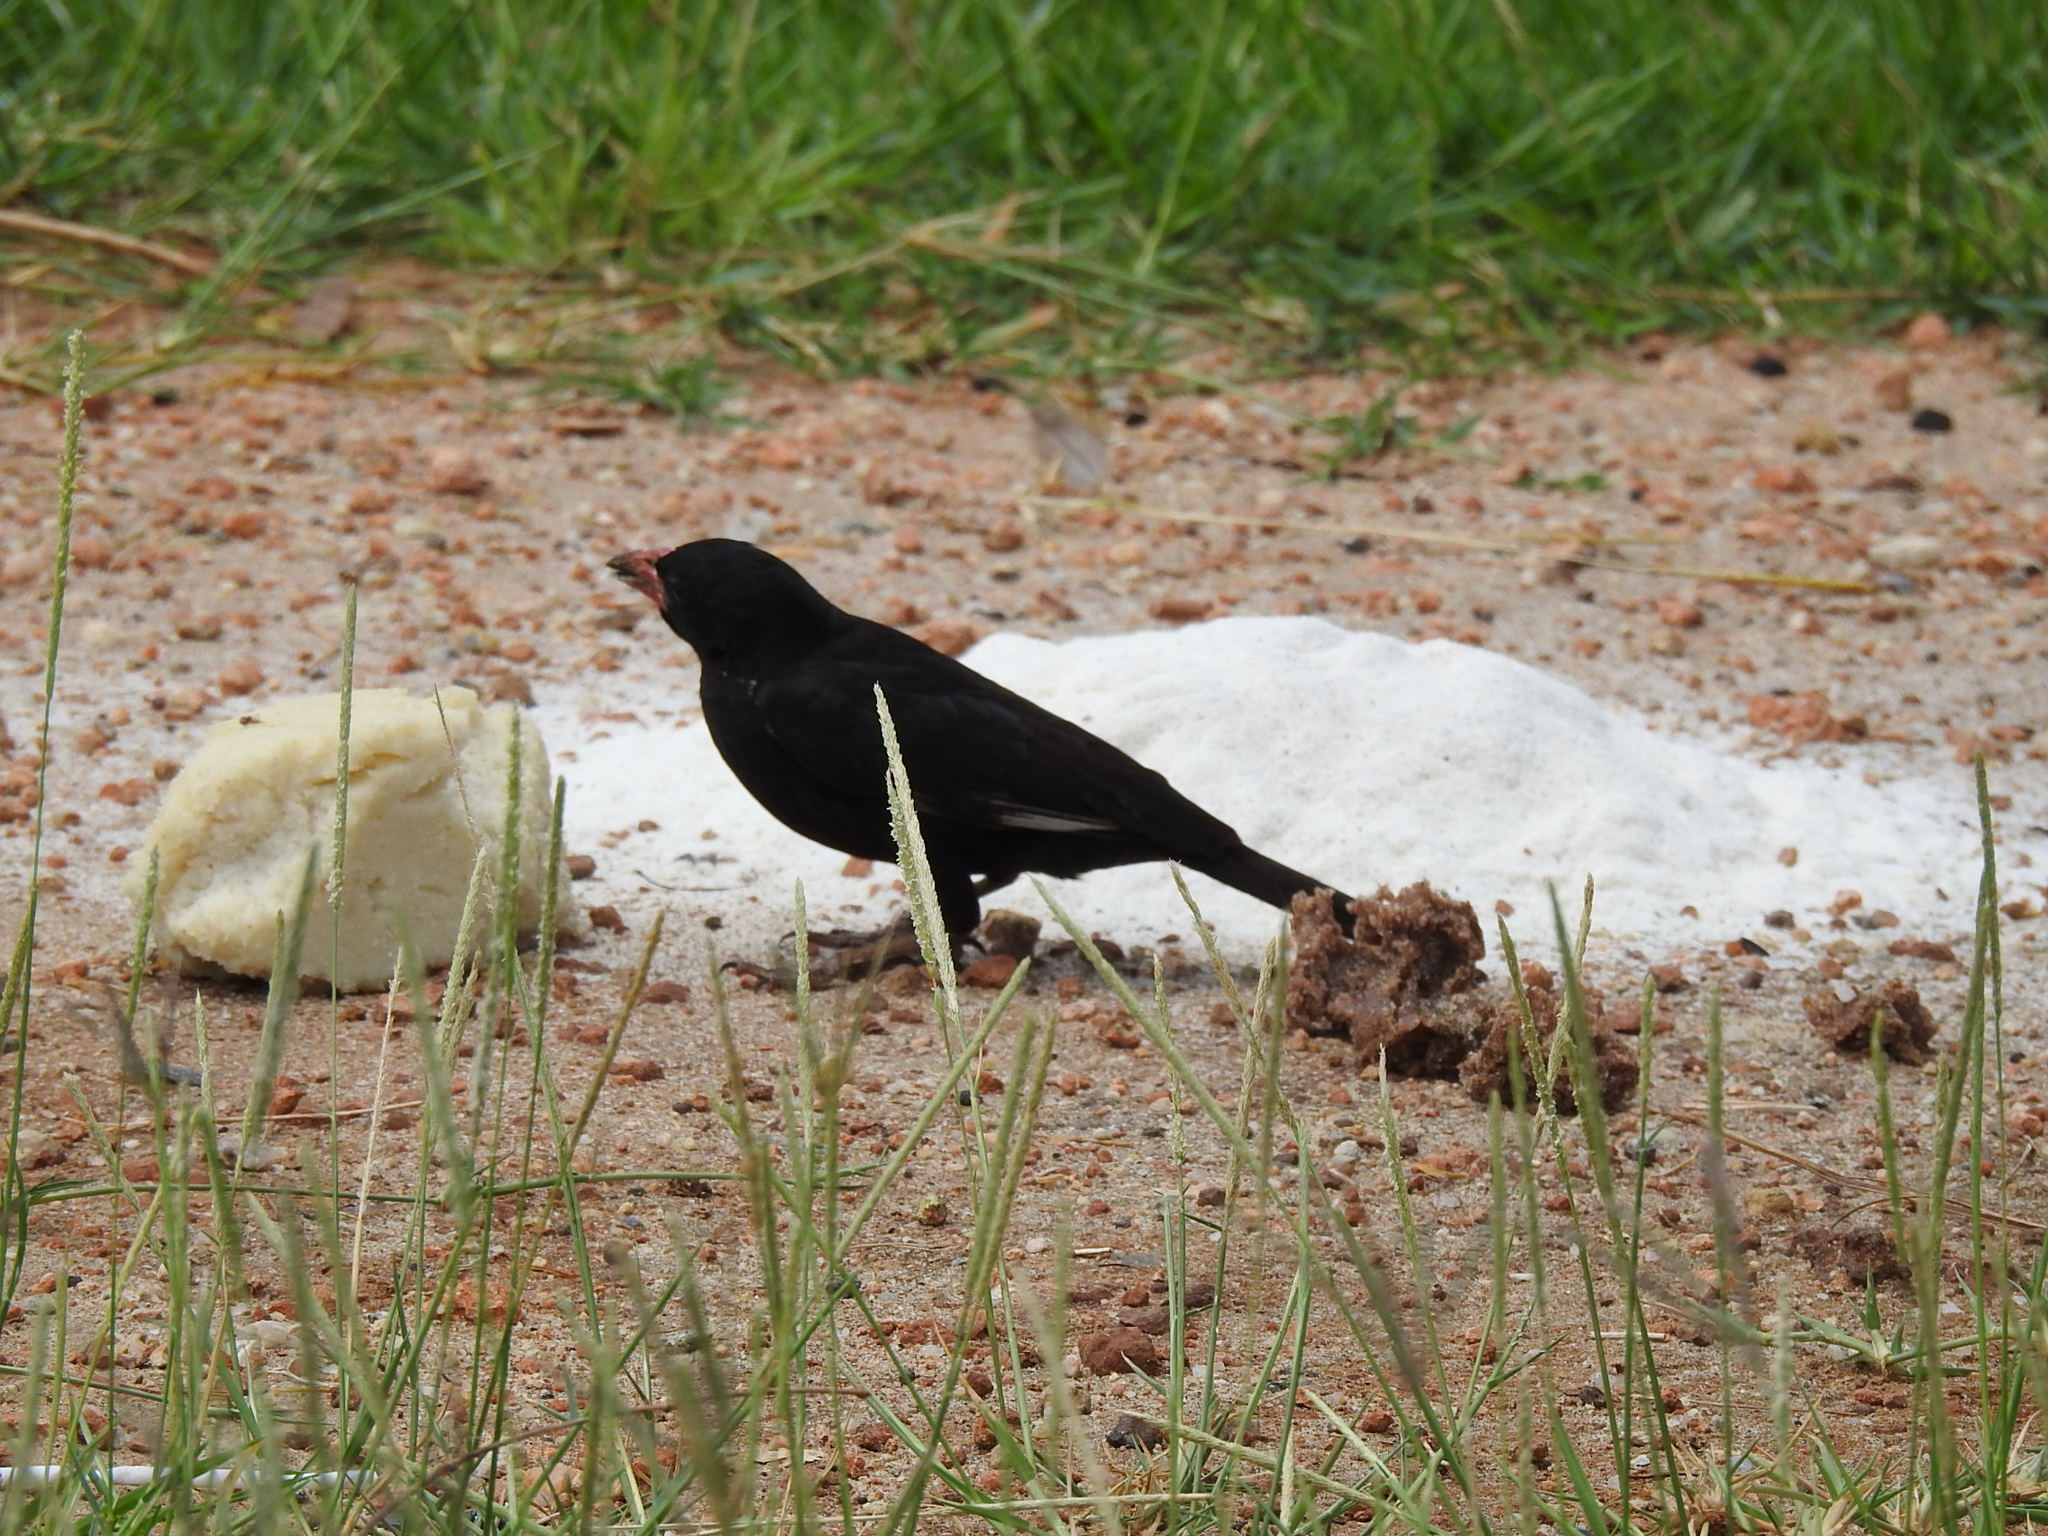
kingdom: Animalia
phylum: Chordata
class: Aves
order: Passeriformes
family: Ploceidae
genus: Bubalornis
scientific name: Bubalornis niger
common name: Red-billed buffalo weaver
